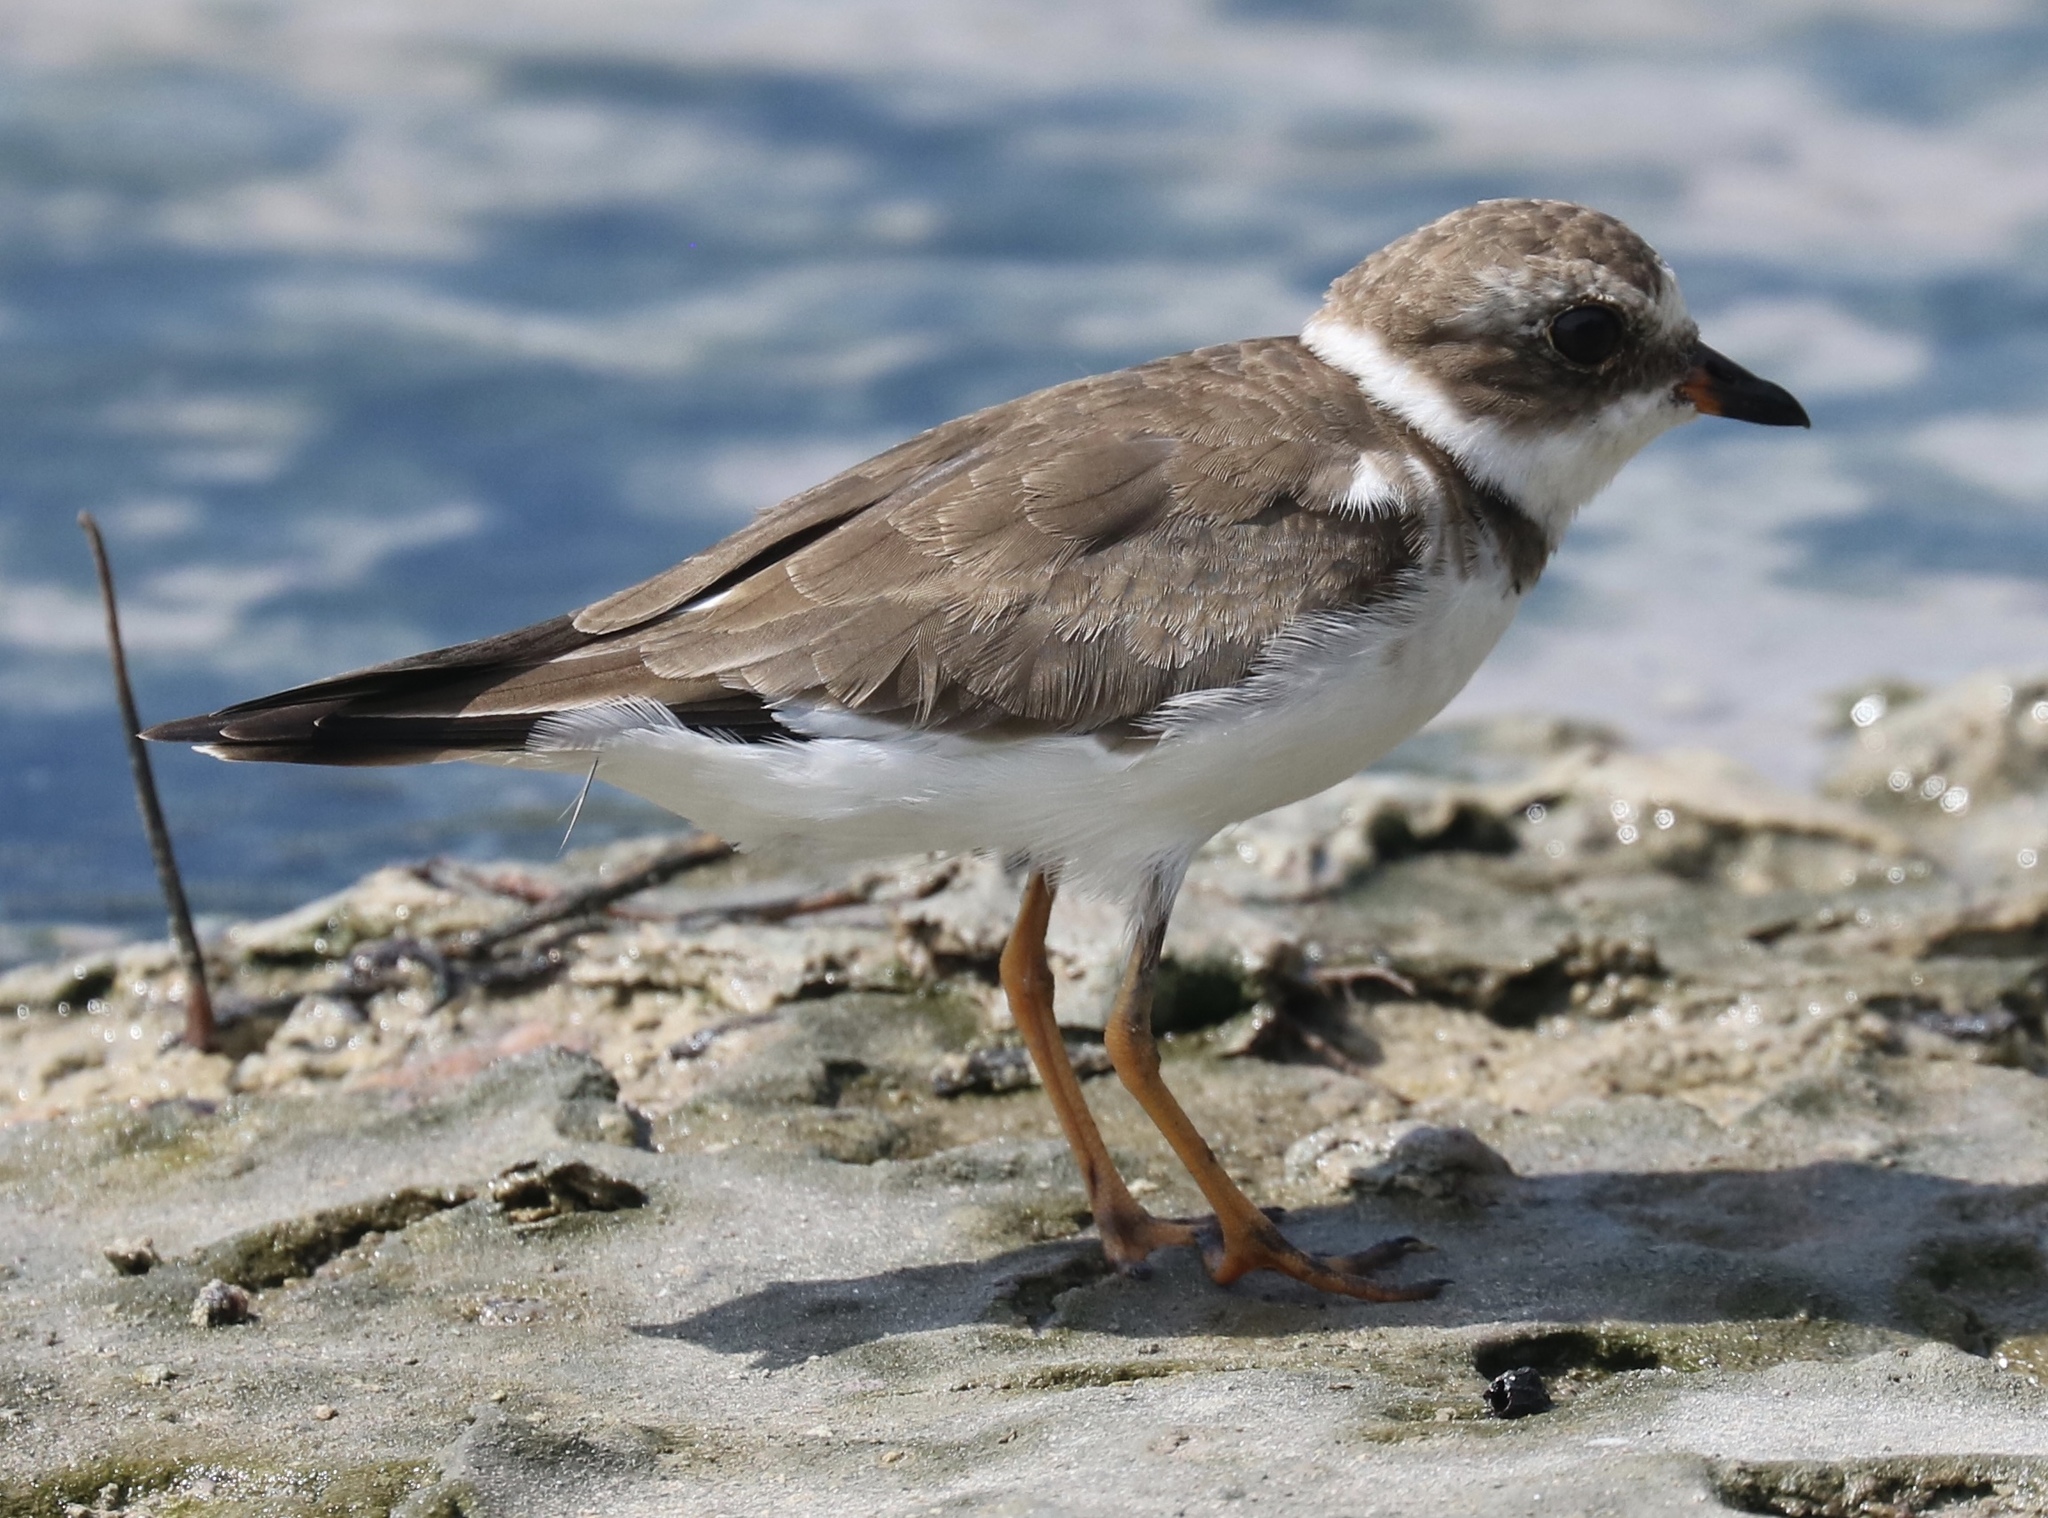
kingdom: Animalia
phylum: Chordata
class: Aves
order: Charadriiformes
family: Charadriidae
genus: Charadrius
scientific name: Charadrius semipalmatus
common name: Semipalmated plover
